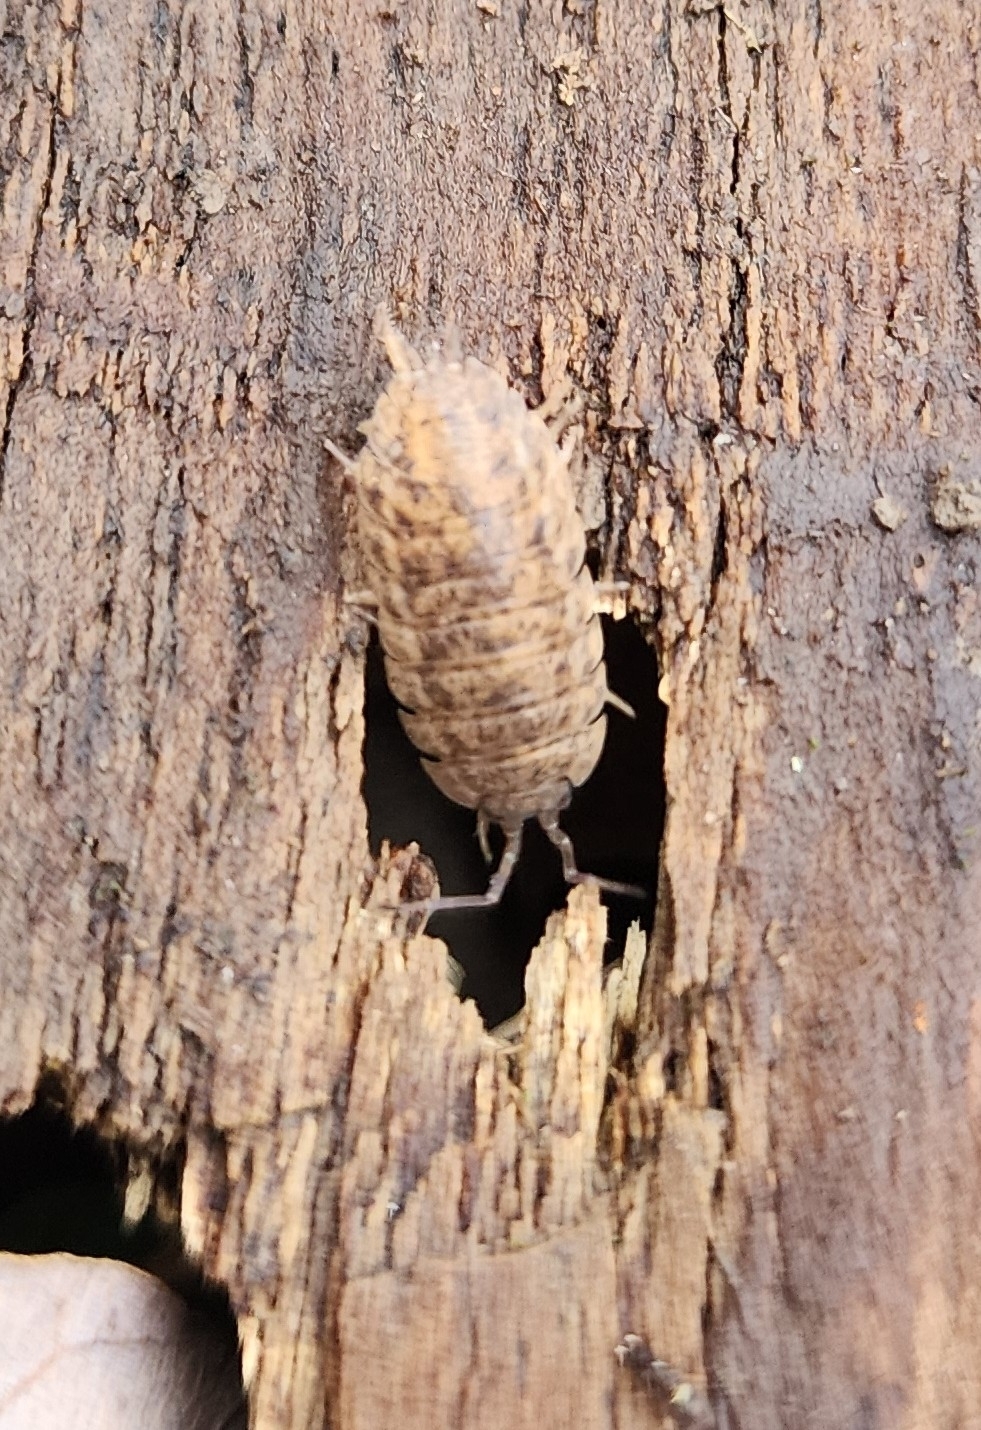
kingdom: Animalia
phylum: Arthropoda
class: Malacostraca
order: Isopoda
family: Trachelipodidae
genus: Trachelipus
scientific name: Trachelipus rathkii
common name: Isopod
